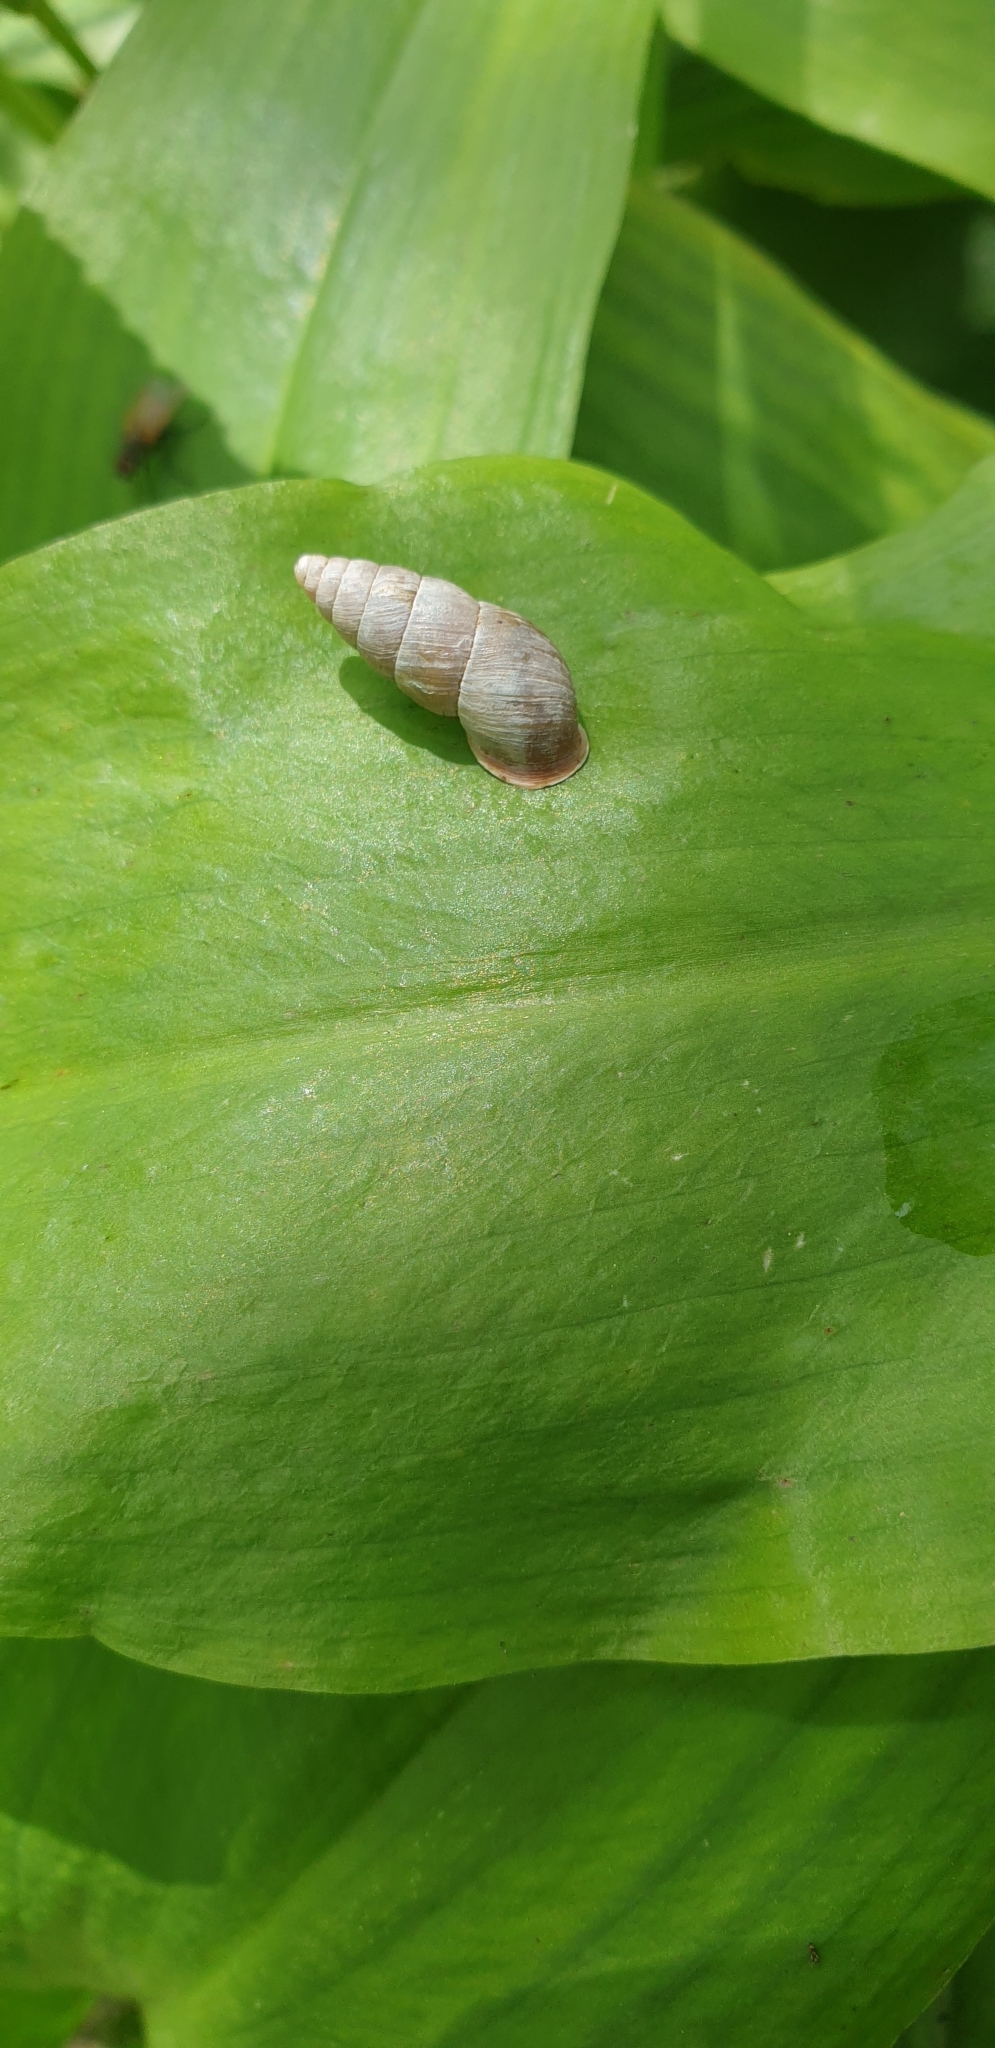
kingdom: Animalia
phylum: Mollusca
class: Gastropoda
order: Stylommatophora
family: Enidae
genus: Ena
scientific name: Ena montana
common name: Mountain bulin
